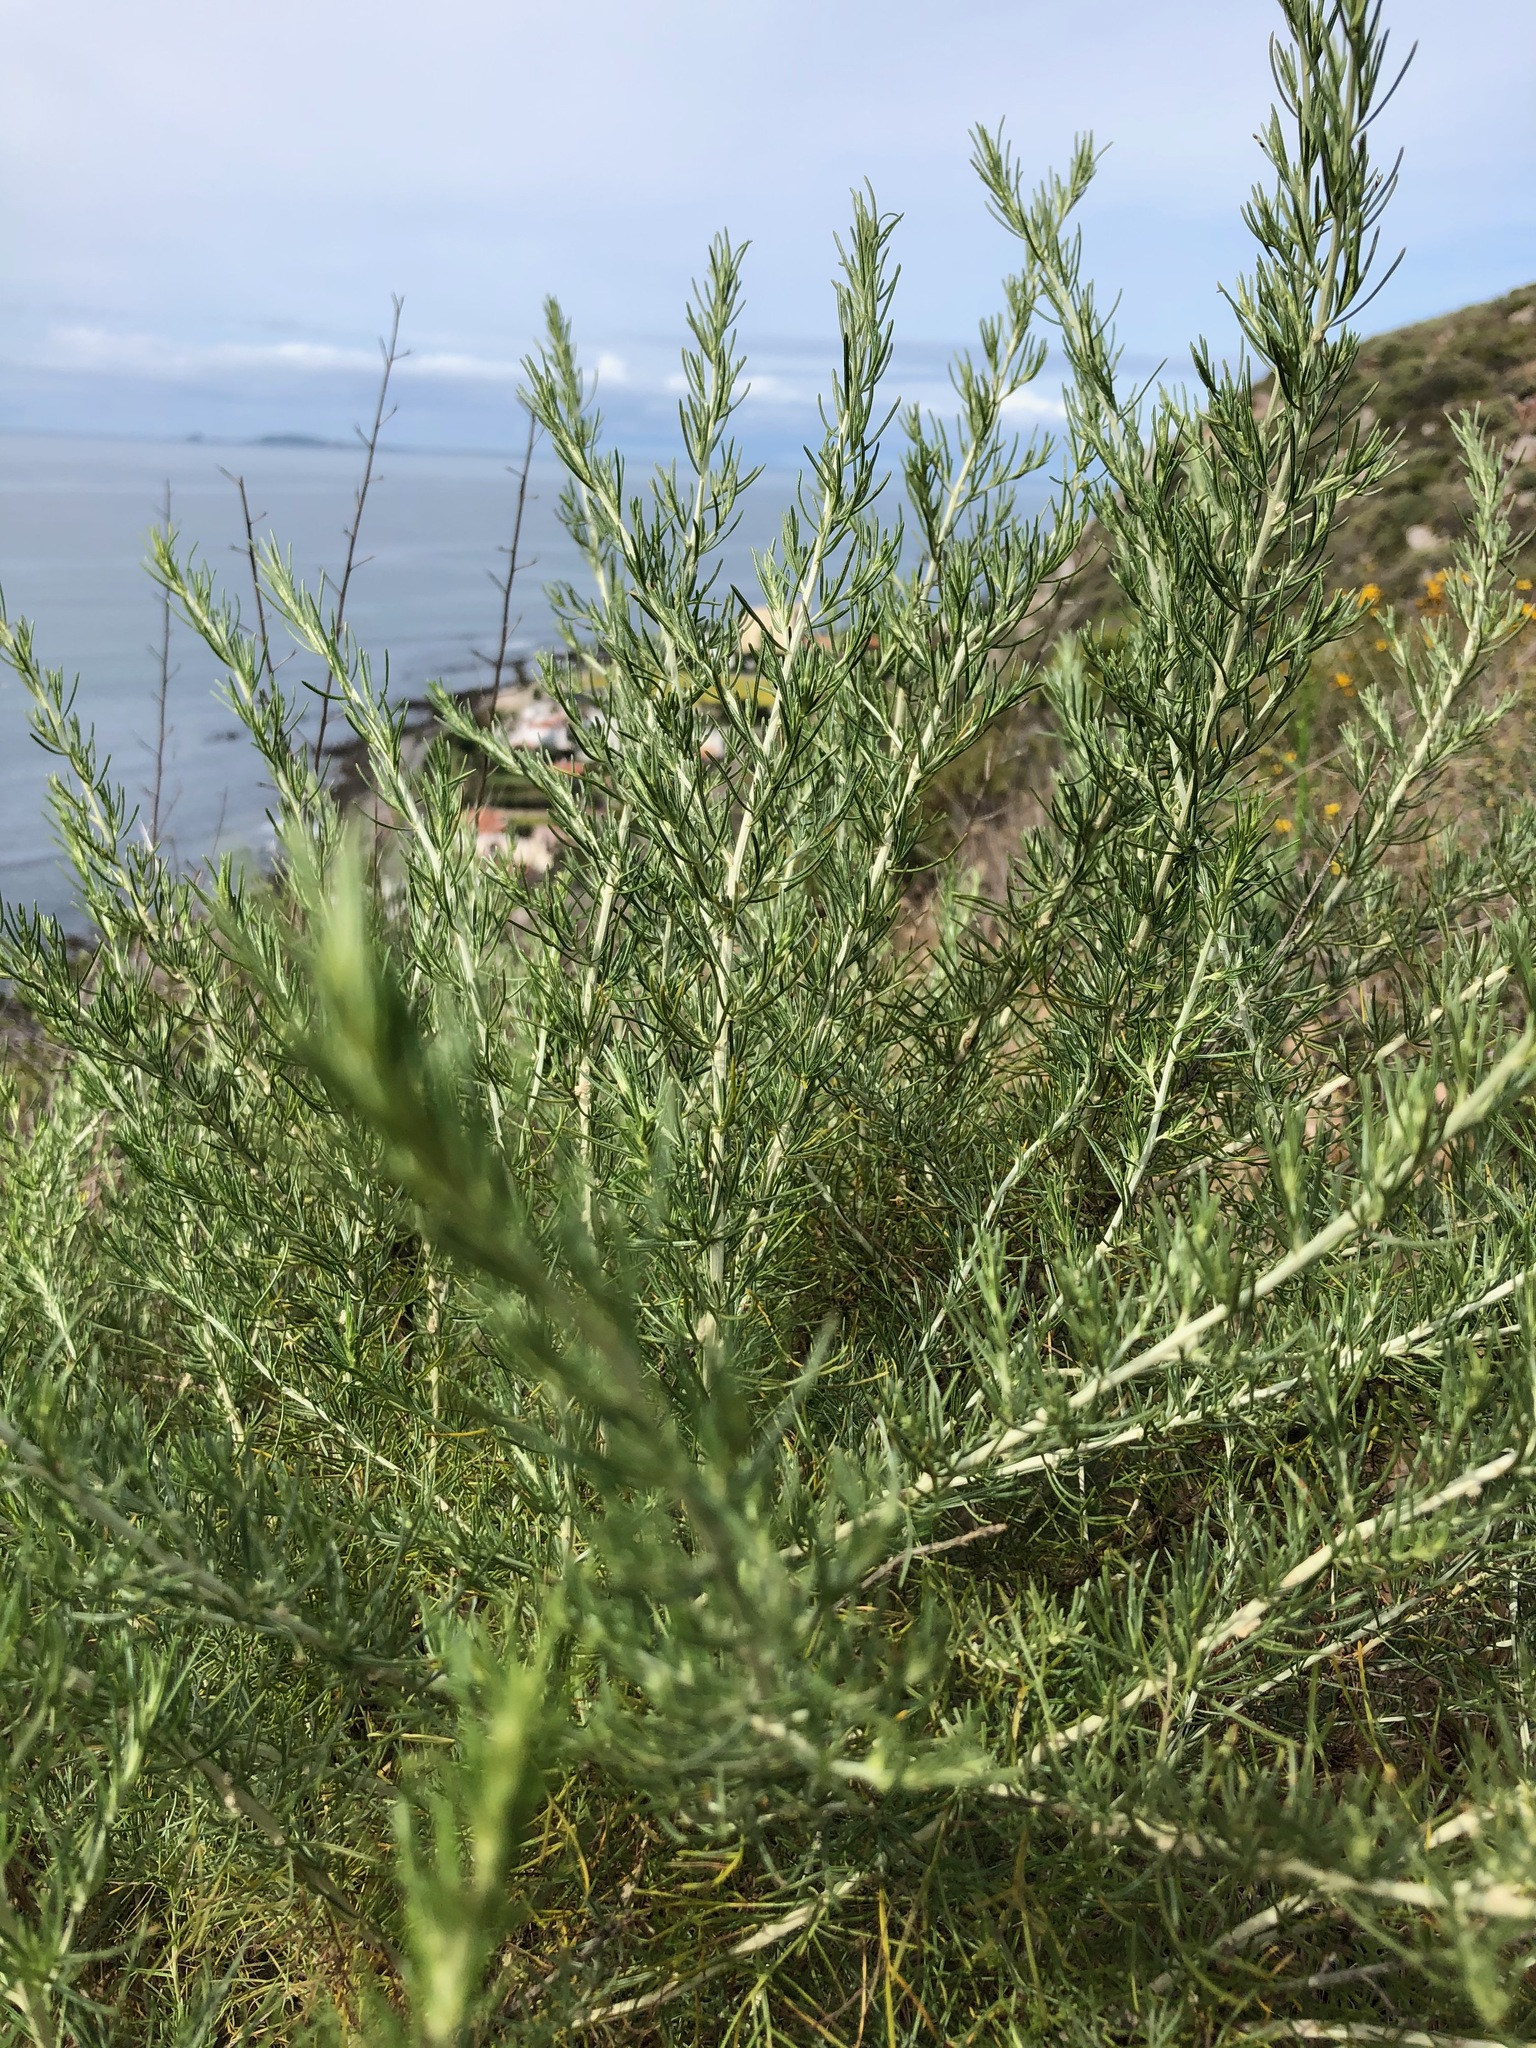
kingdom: Plantae
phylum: Tracheophyta
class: Magnoliopsida
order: Asterales
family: Asteraceae
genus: Artemisia
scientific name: Artemisia californica
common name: California sagebrush
